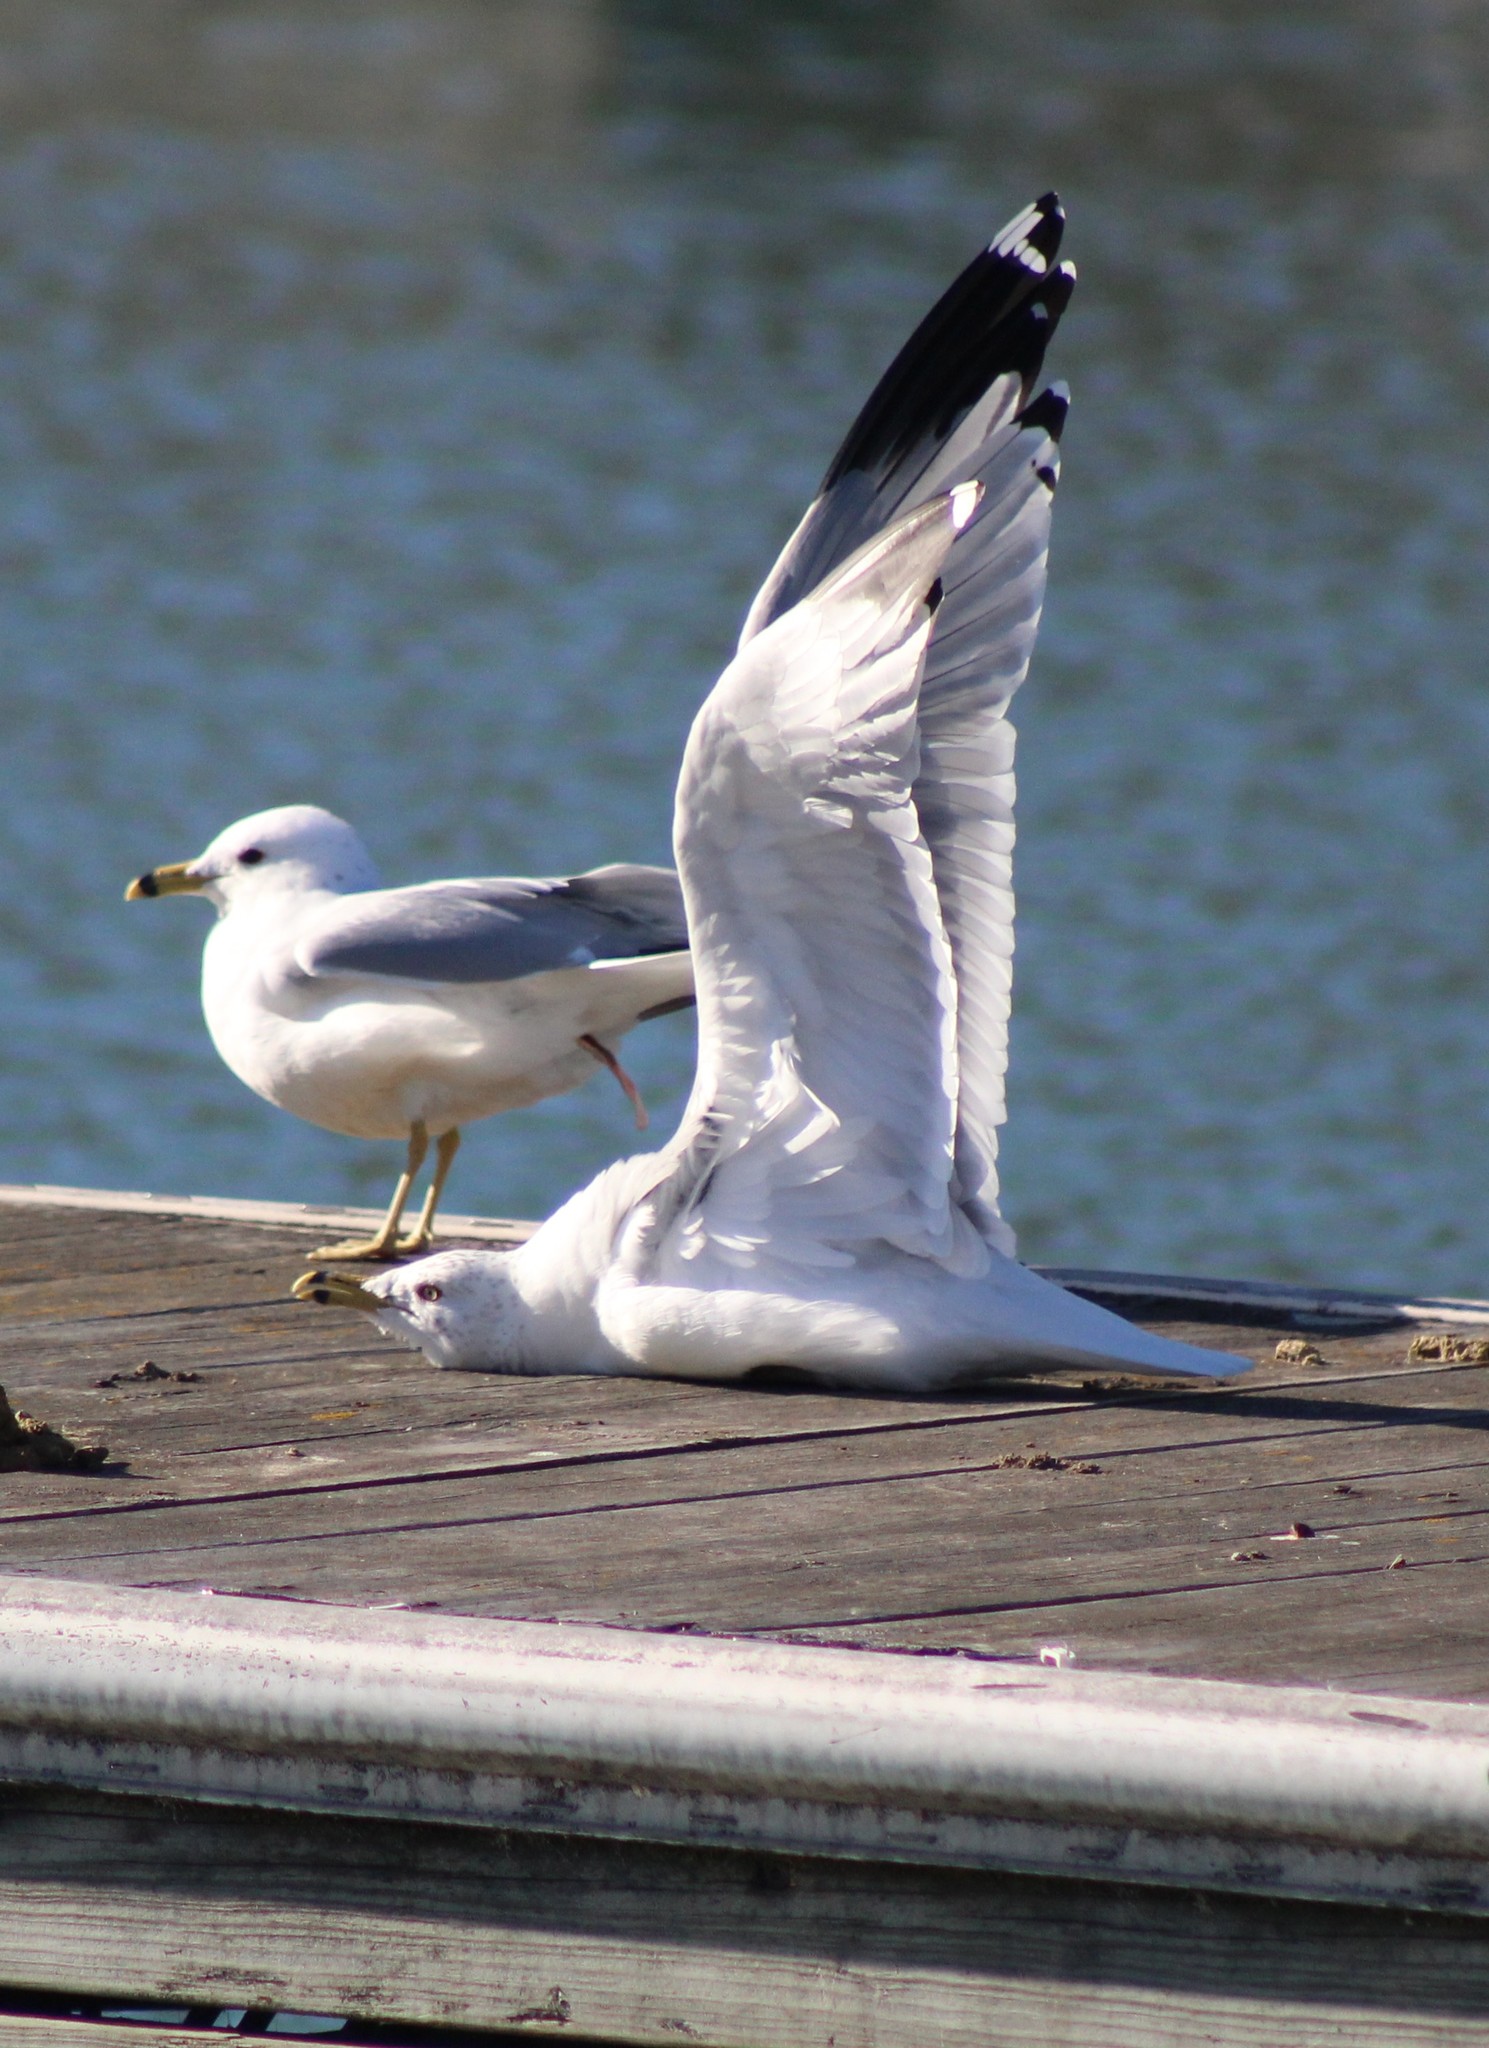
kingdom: Animalia
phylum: Chordata
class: Aves
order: Charadriiformes
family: Laridae
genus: Larus
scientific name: Larus delawarensis
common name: Ring-billed gull
